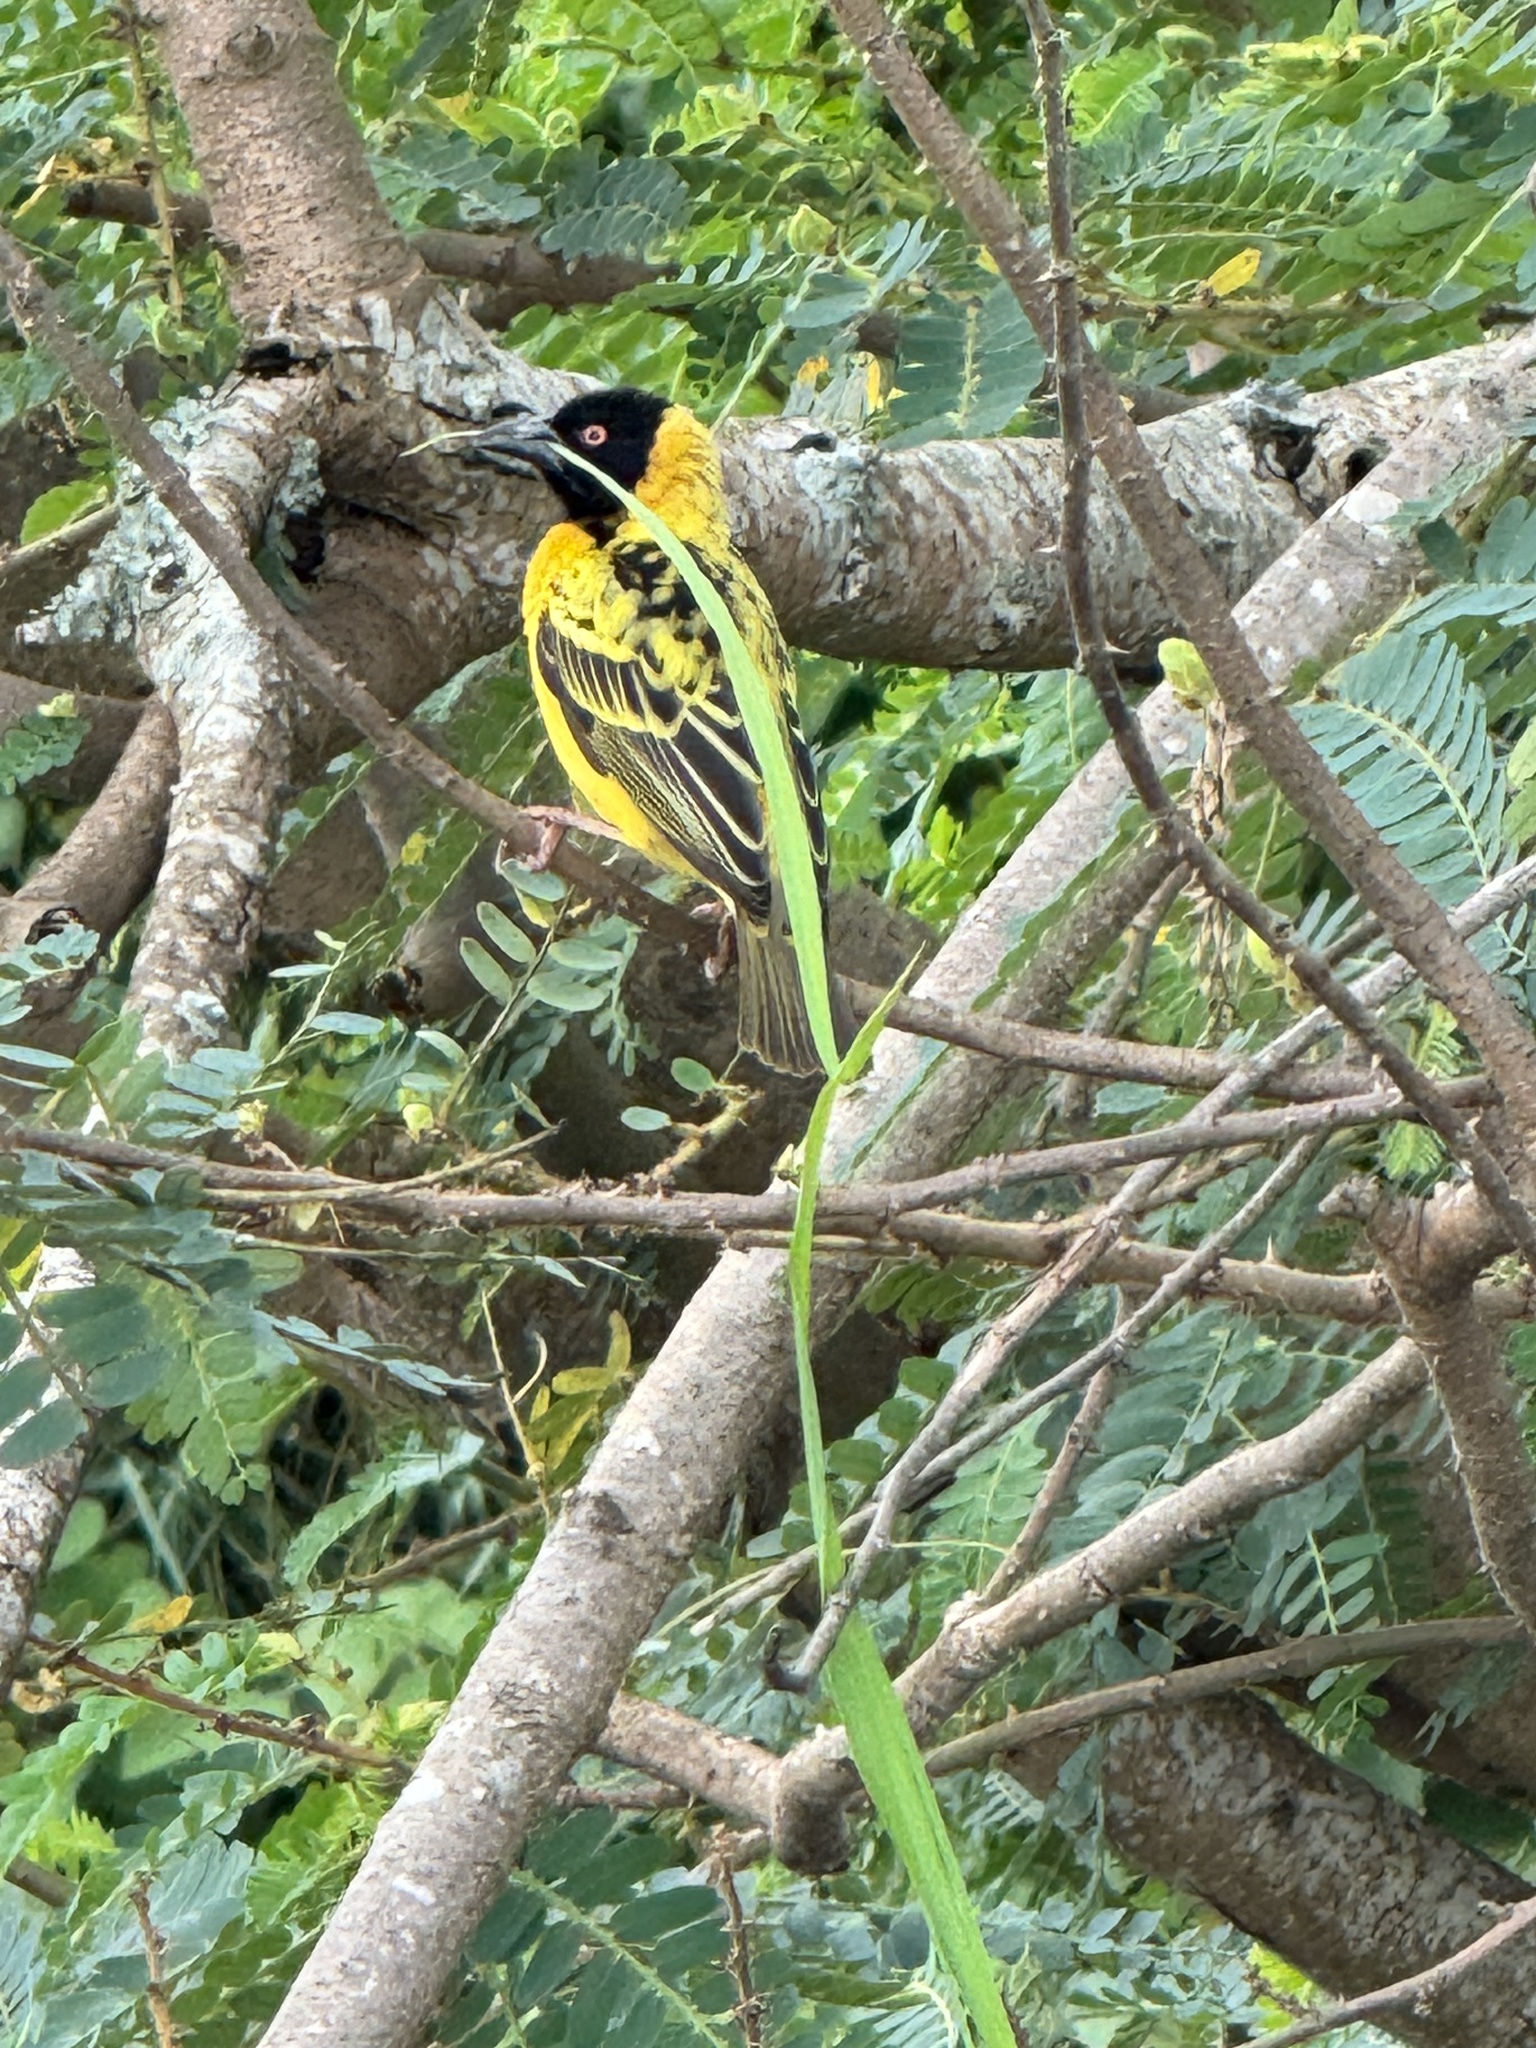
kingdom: Animalia
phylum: Chordata
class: Aves
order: Passeriformes
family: Ploceidae
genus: Ploceus
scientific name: Ploceus cucullatus
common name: Village weaver
